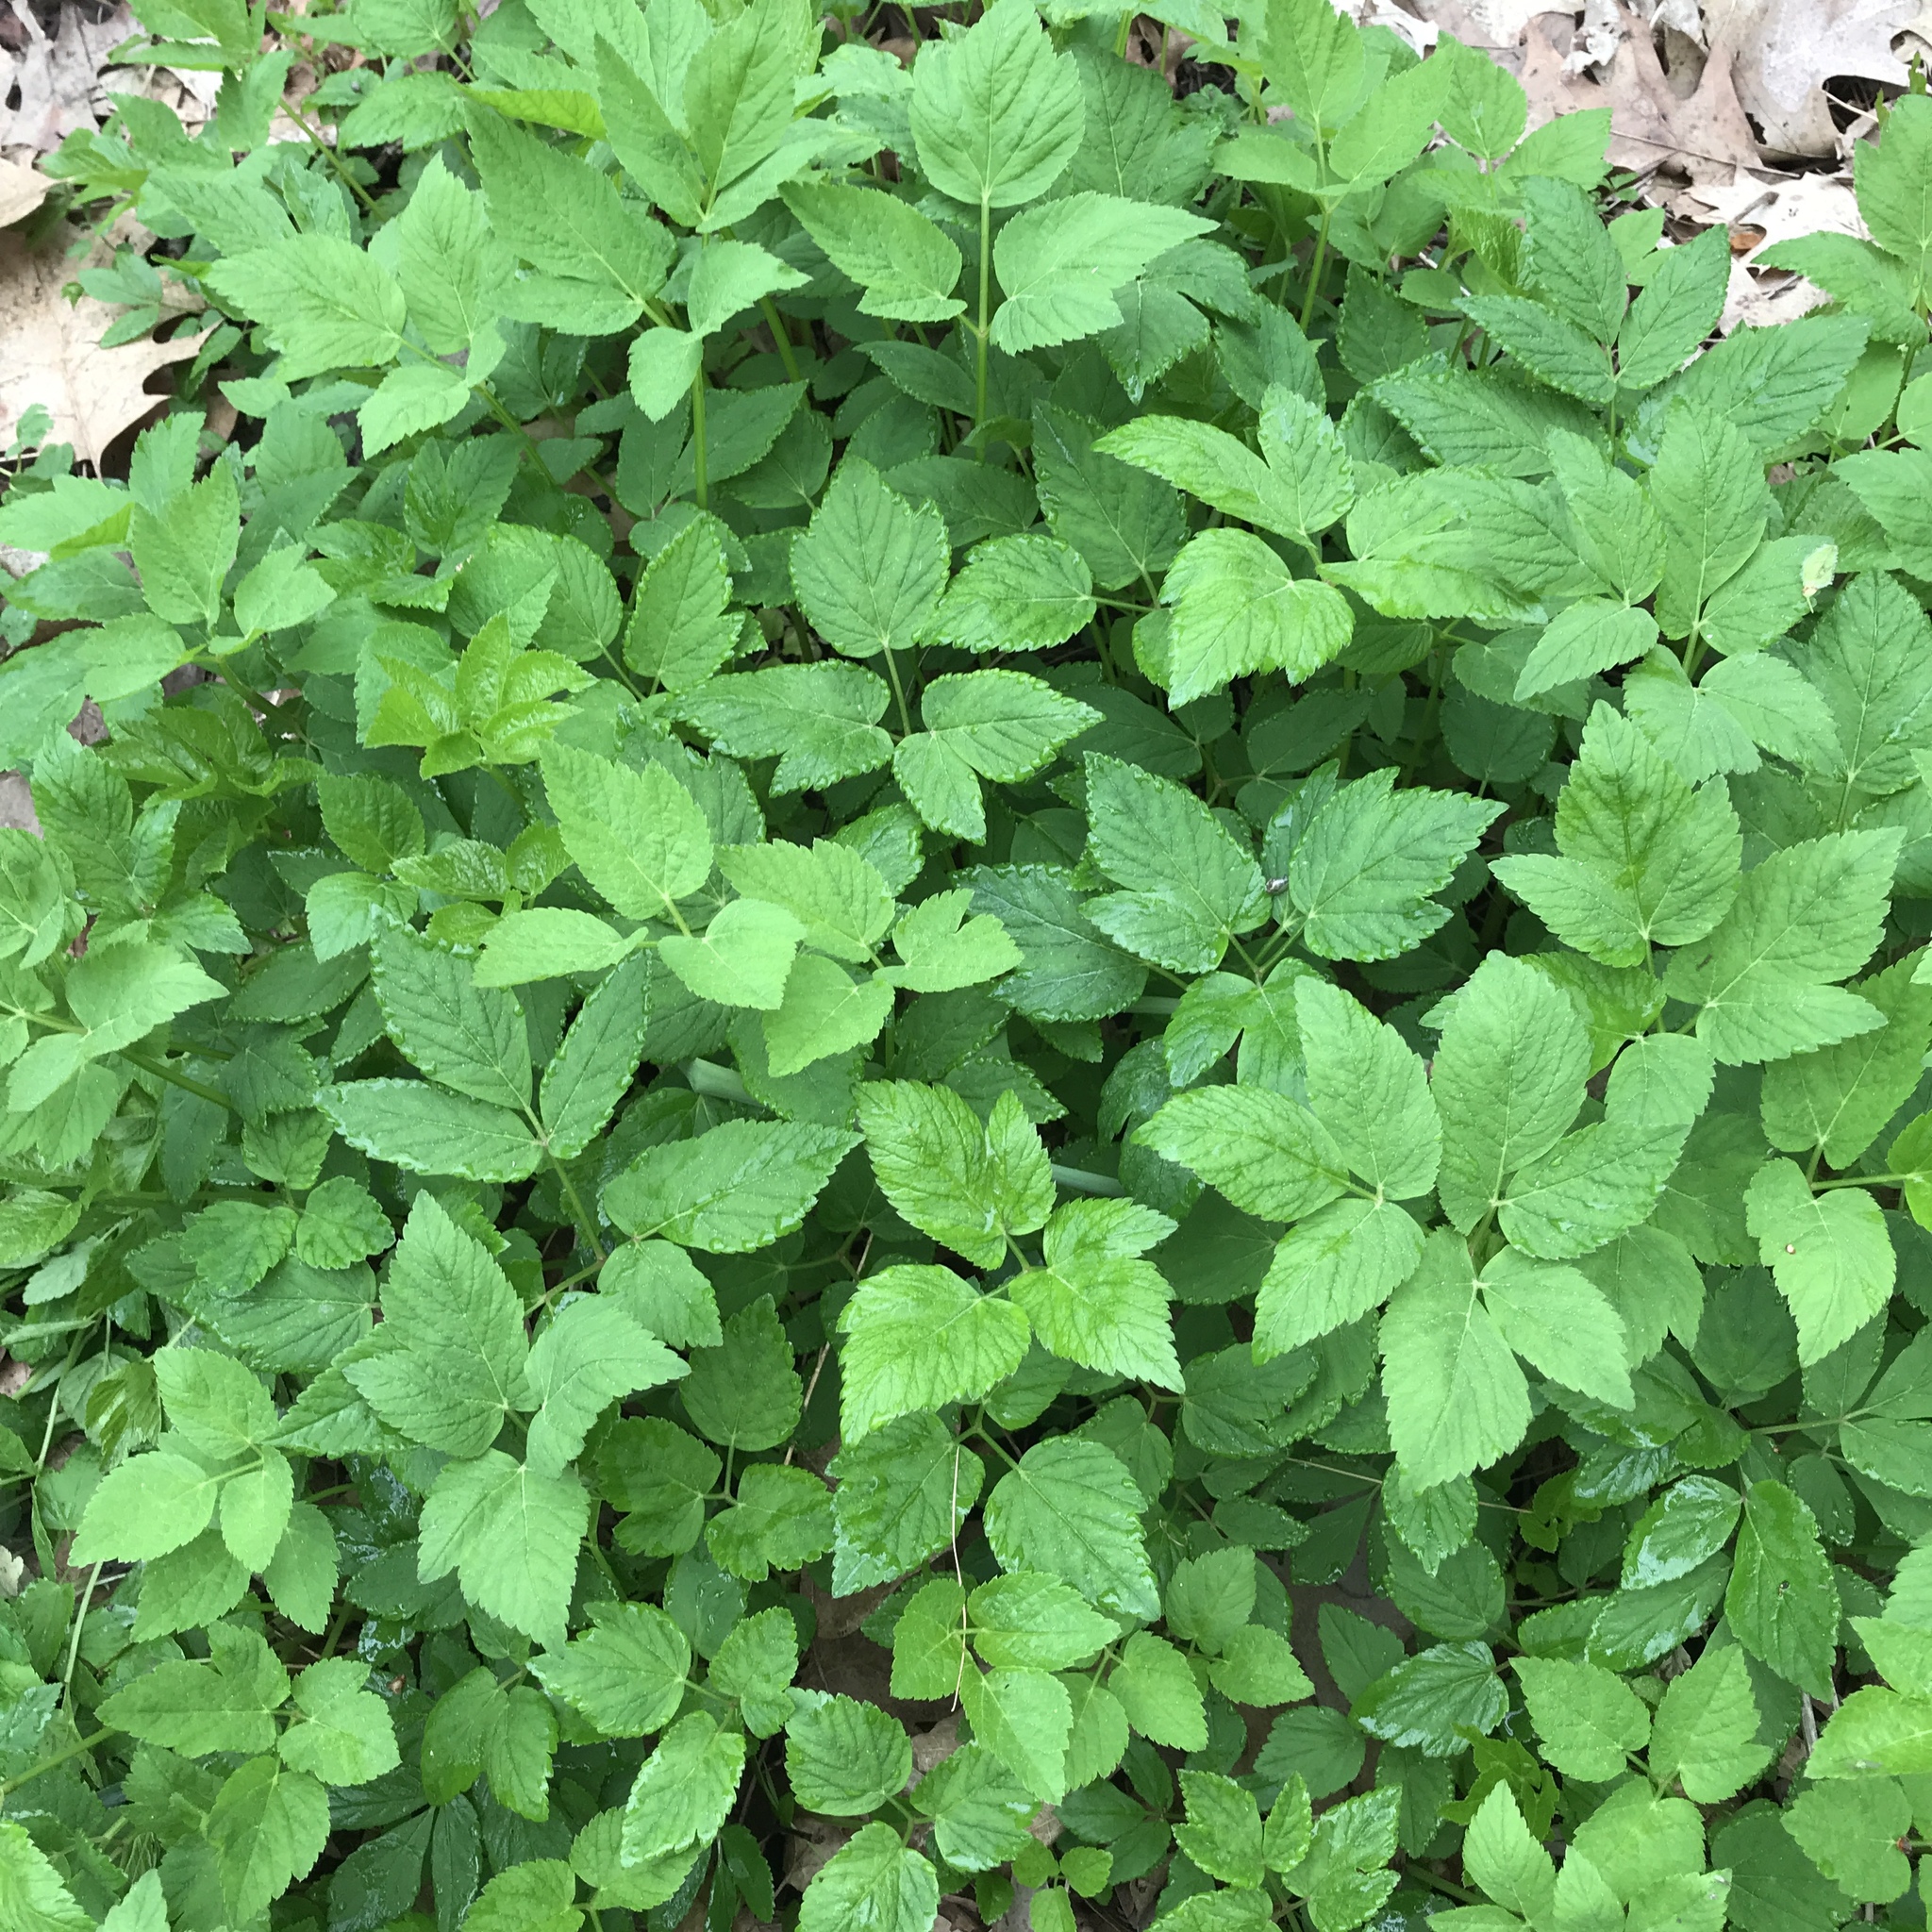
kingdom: Plantae
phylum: Tracheophyta
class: Magnoliopsida
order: Apiales
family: Apiaceae
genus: Aegopodium
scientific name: Aegopodium podagraria
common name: Ground-elder
